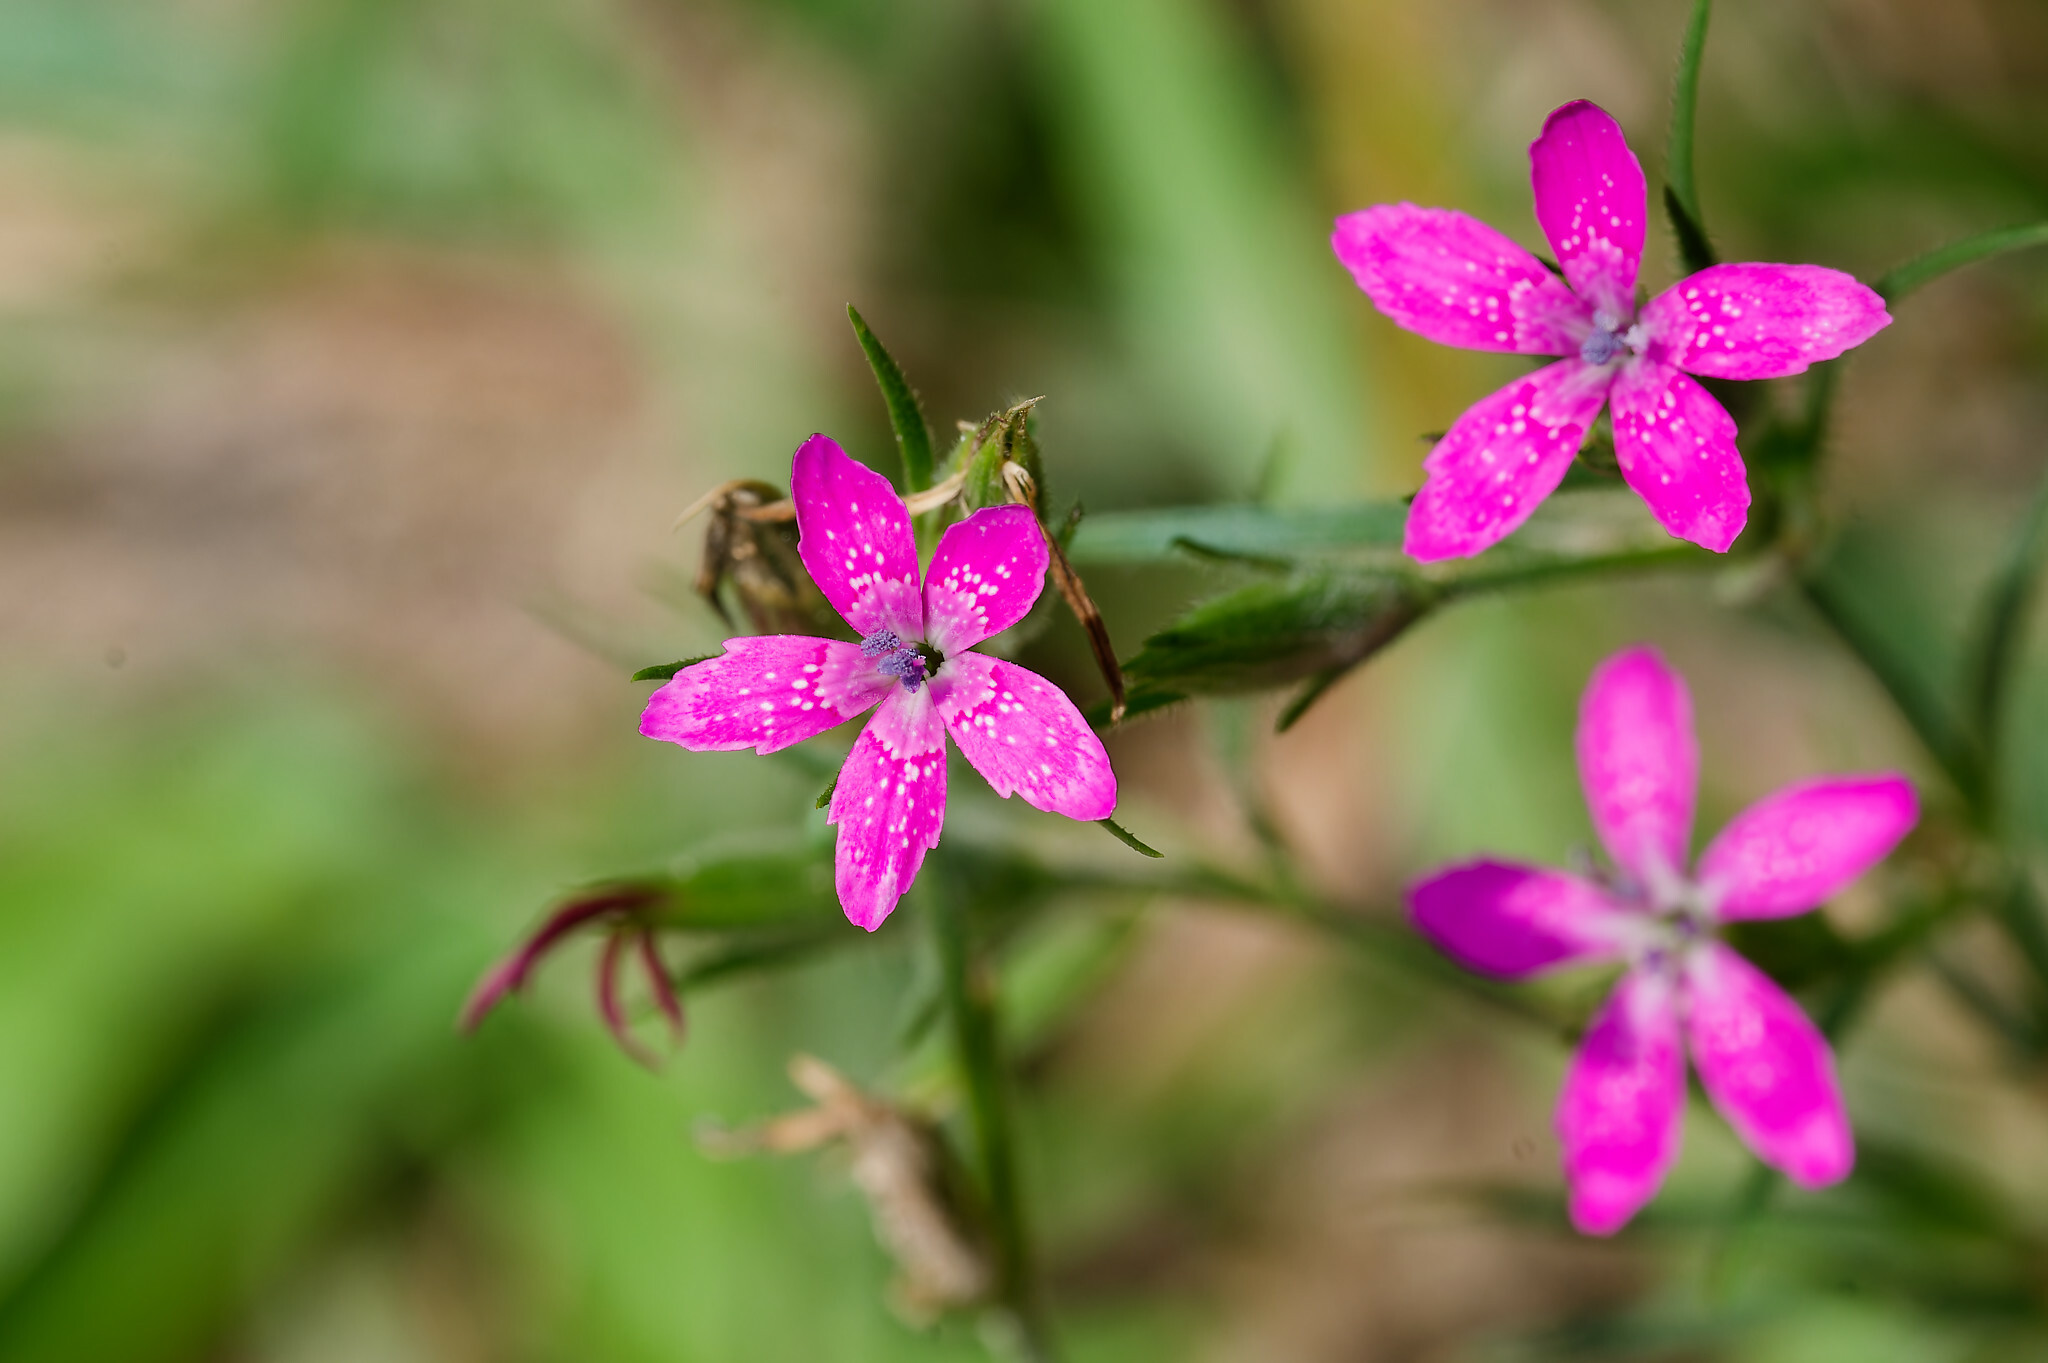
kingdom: Plantae
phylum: Tracheophyta
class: Magnoliopsida
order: Caryophyllales
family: Caryophyllaceae
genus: Dianthus
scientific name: Dianthus armeria
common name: Deptford pink
